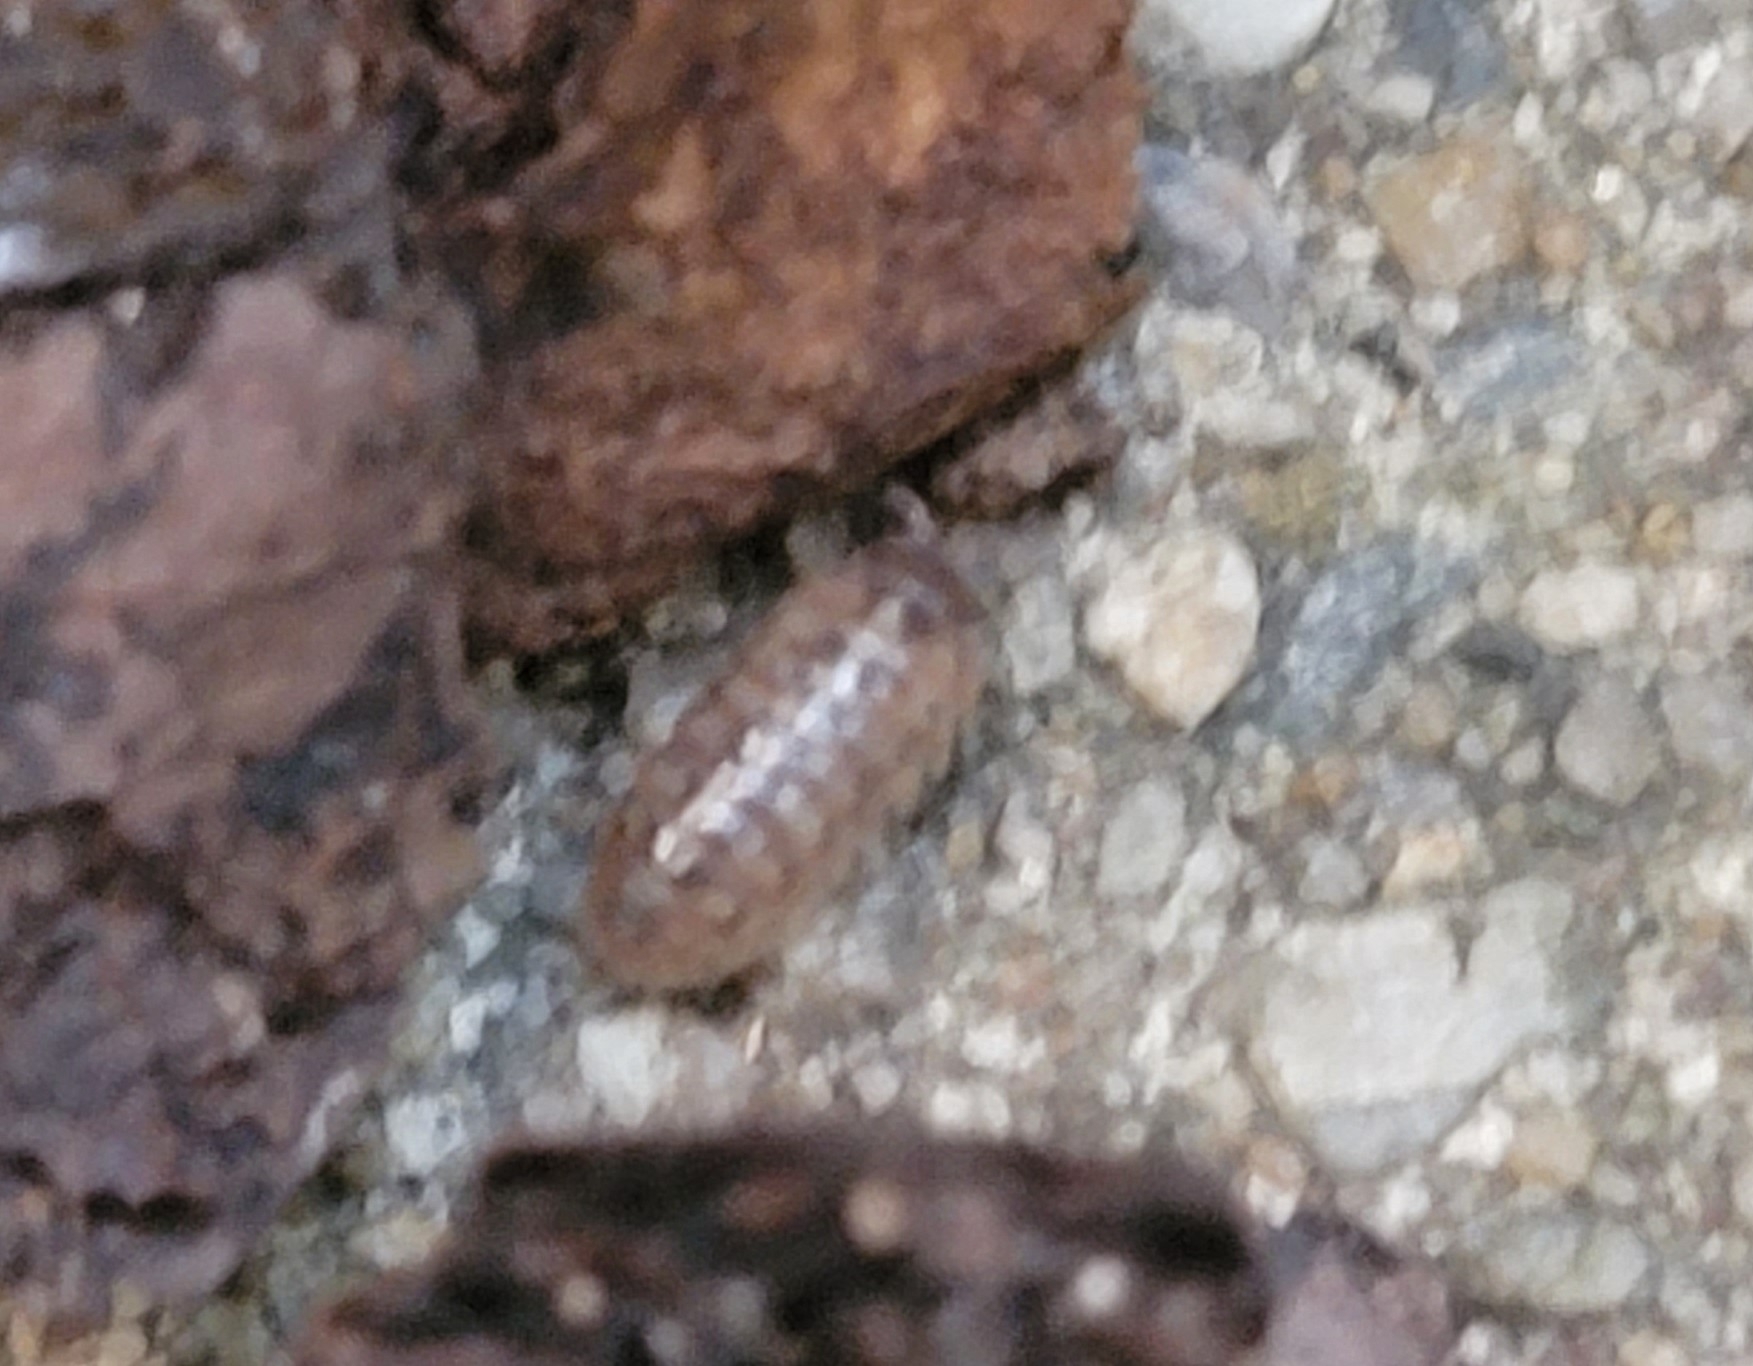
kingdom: Animalia
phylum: Arthropoda
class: Malacostraca
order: Isopoda
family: Armadillidiidae
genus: Armadillidium
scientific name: Armadillidium vulgare
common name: Common pill woodlouse
